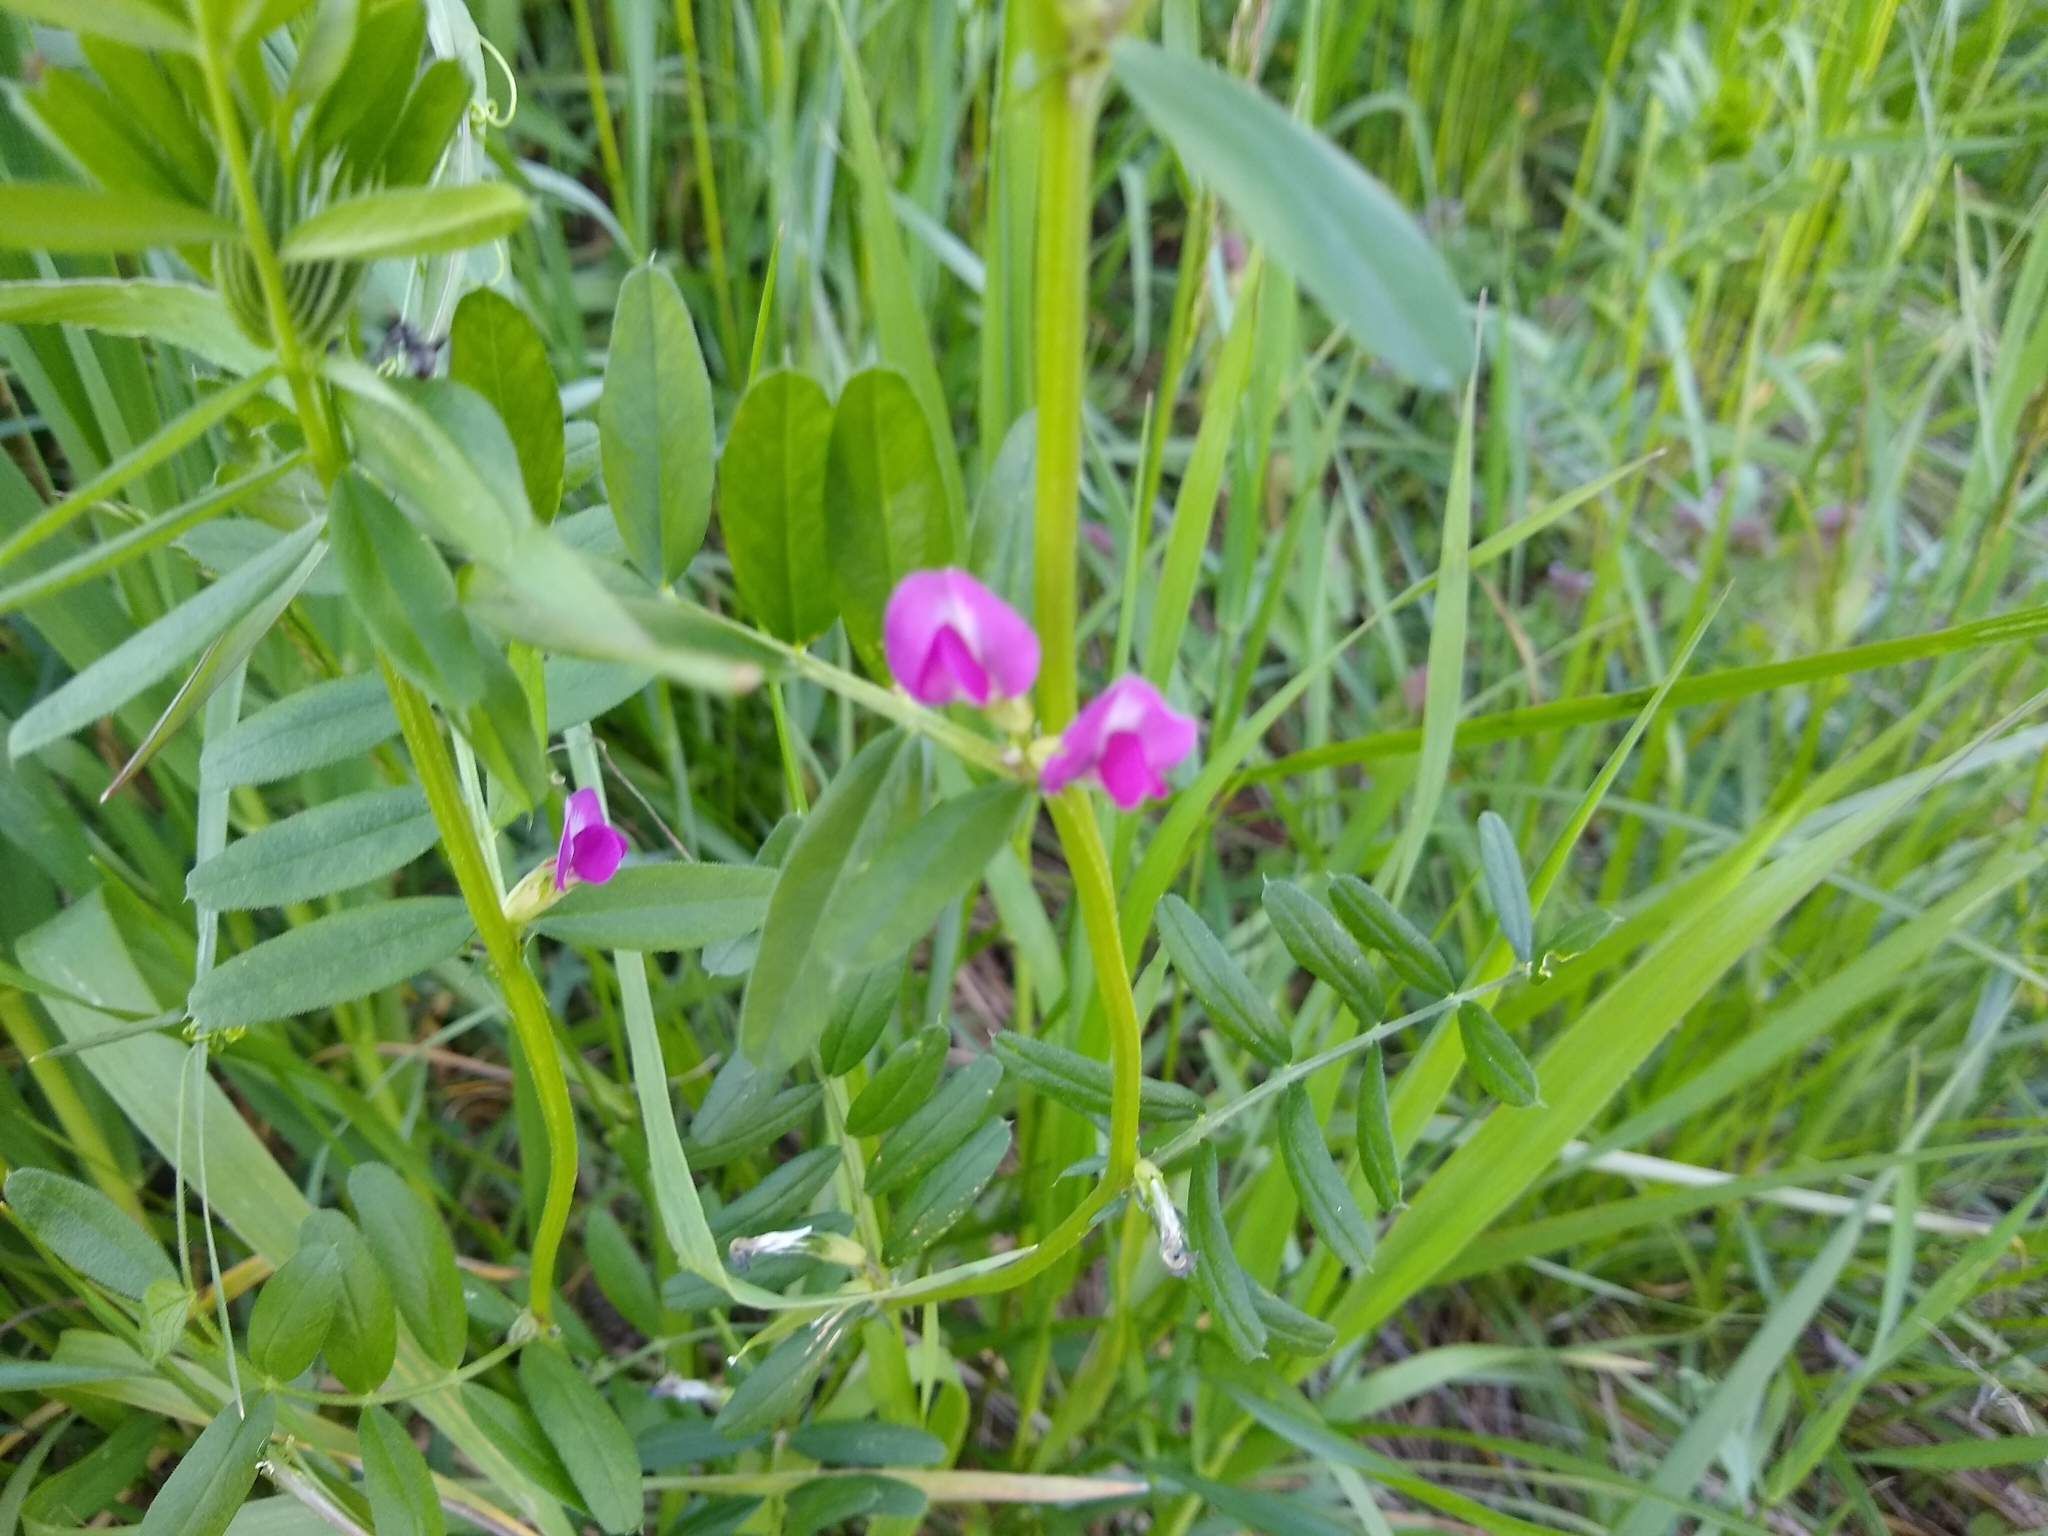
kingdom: Plantae
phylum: Tracheophyta
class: Magnoliopsida
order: Fabales
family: Fabaceae
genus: Vicia
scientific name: Vicia sativa
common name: Garden vetch
